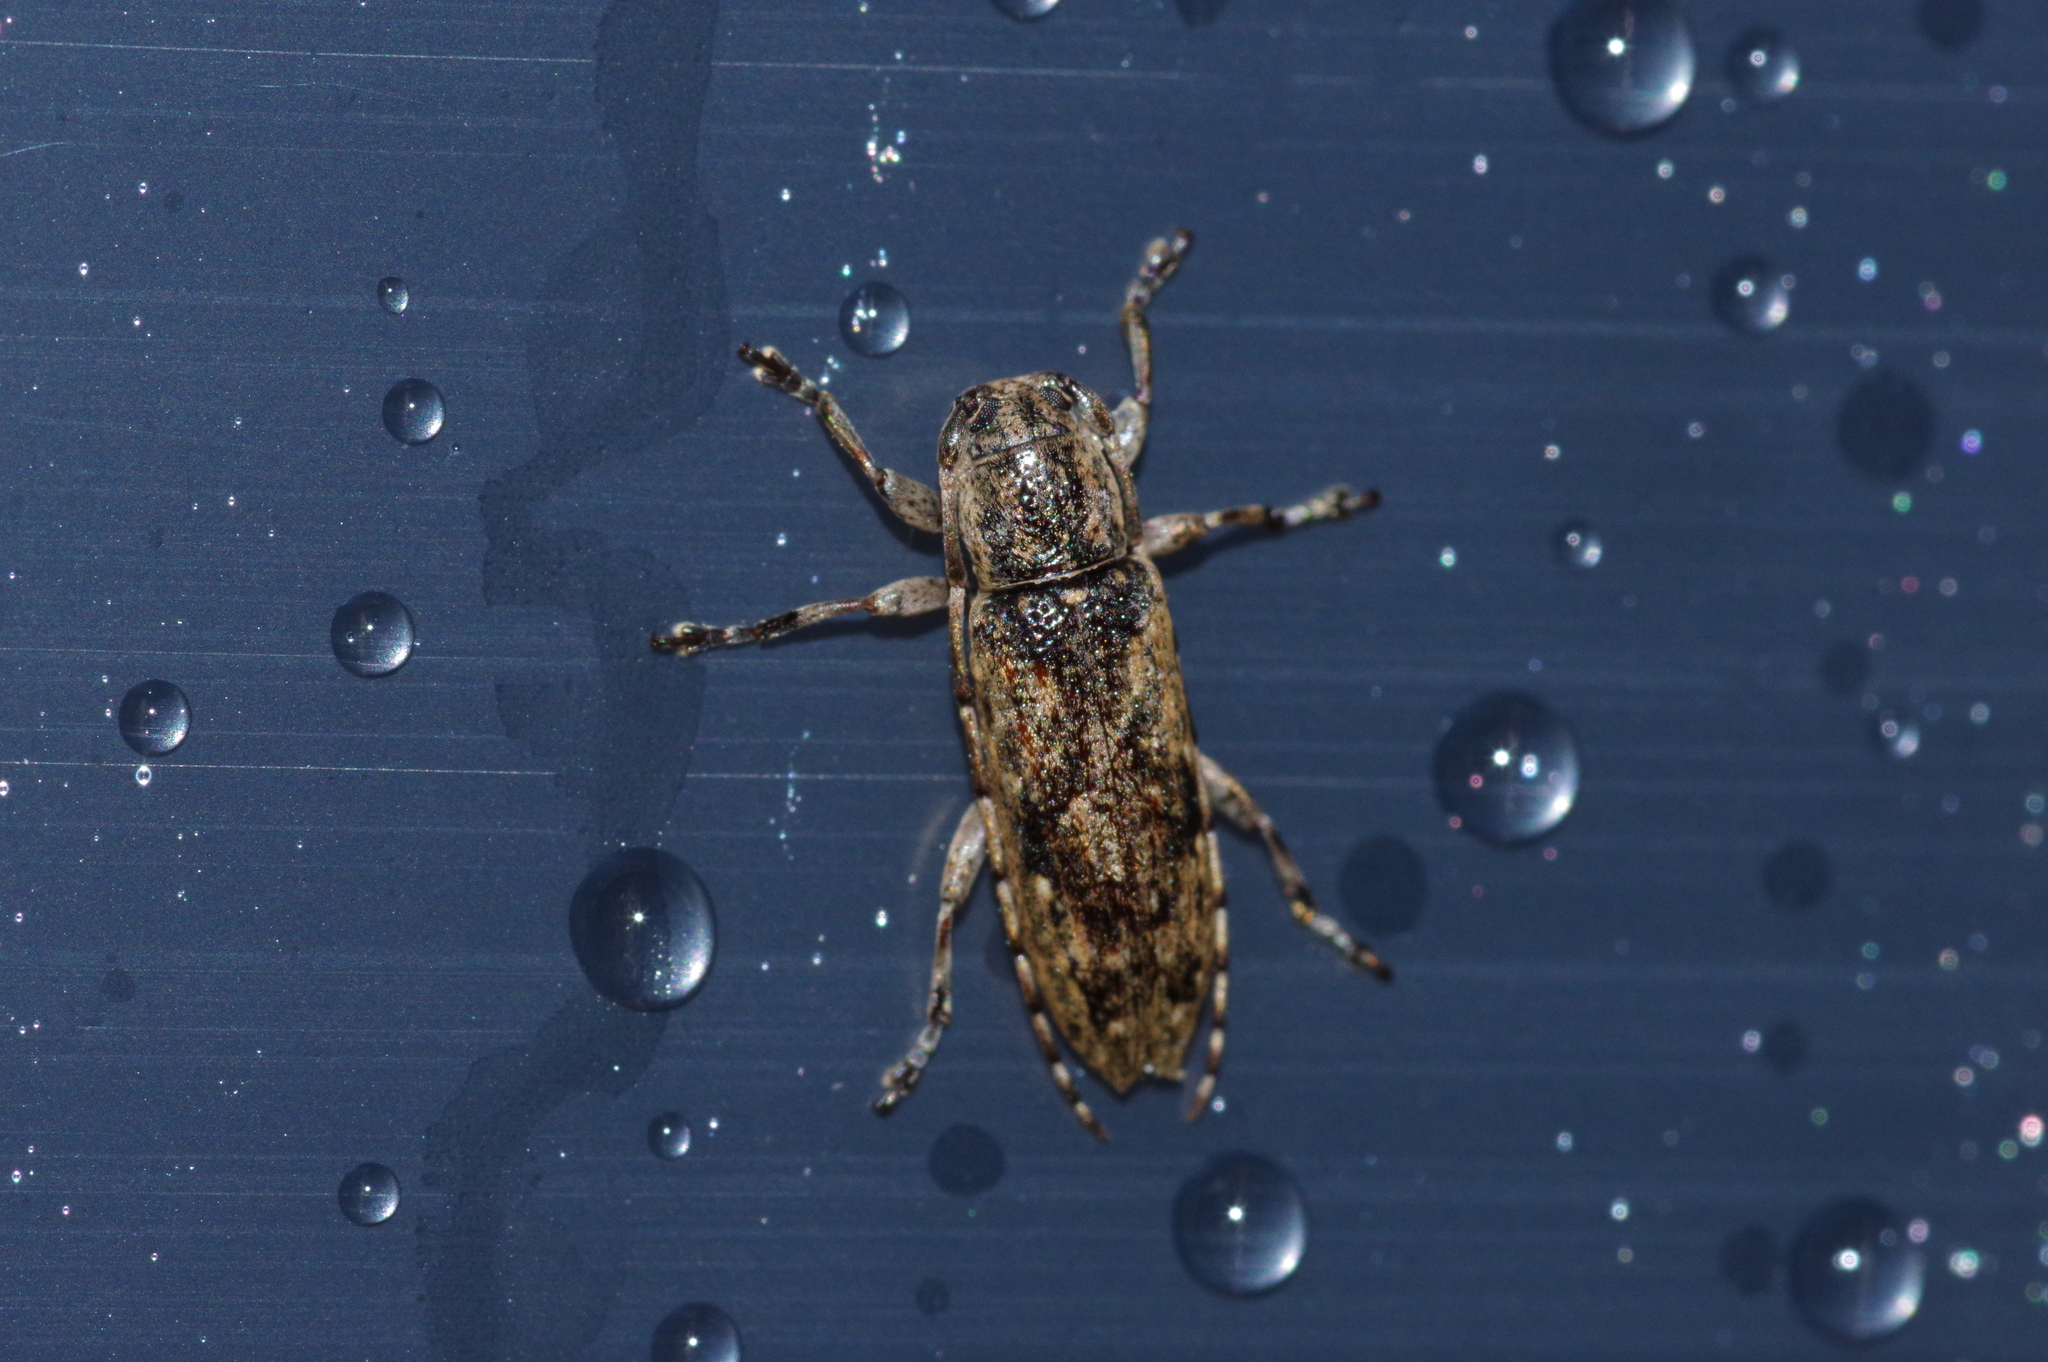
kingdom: Animalia
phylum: Arthropoda
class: Insecta
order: Coleoptera
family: Cerambycidae
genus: Mycerinopsis
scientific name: Mycerinopsis ordinata
